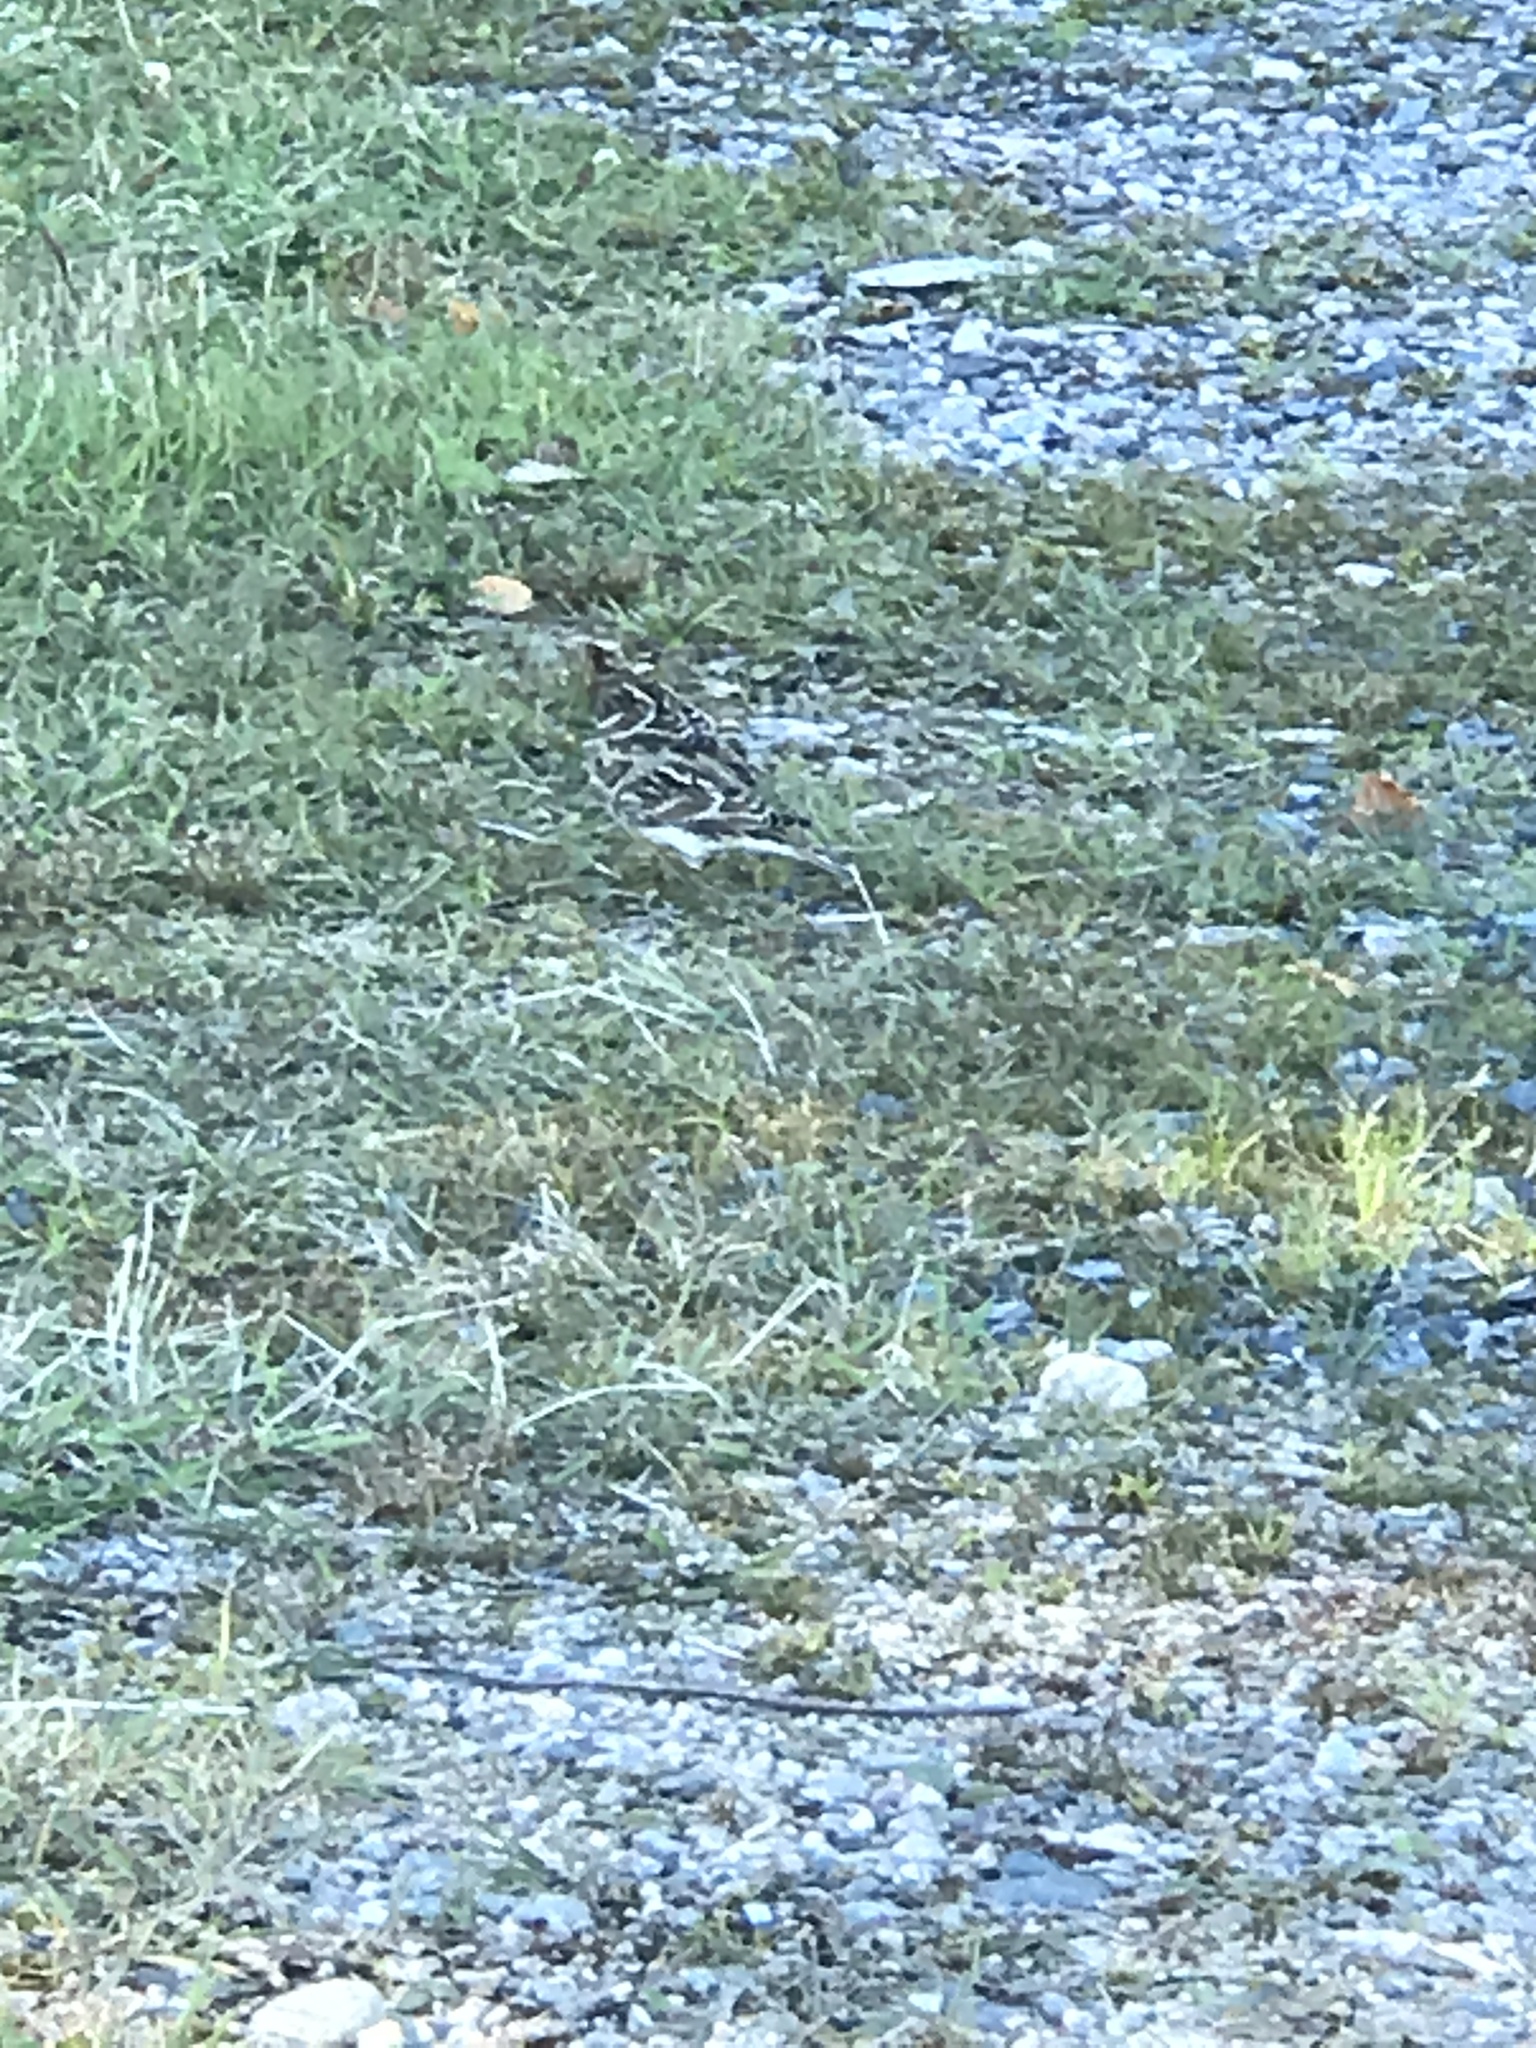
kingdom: Animalia
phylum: Chordata
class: Aves
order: Passeriformes
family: Calcariidae
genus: Calcarius
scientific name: Calcarius lapponicus
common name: Lapland longspur
